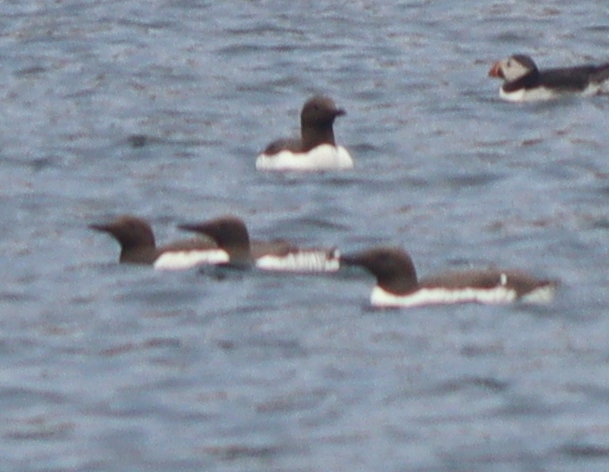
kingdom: Animalia
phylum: Chordata
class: Aves
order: Charadriiformes
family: Alcidae
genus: Uria
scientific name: Uria aalge
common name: Common murre
